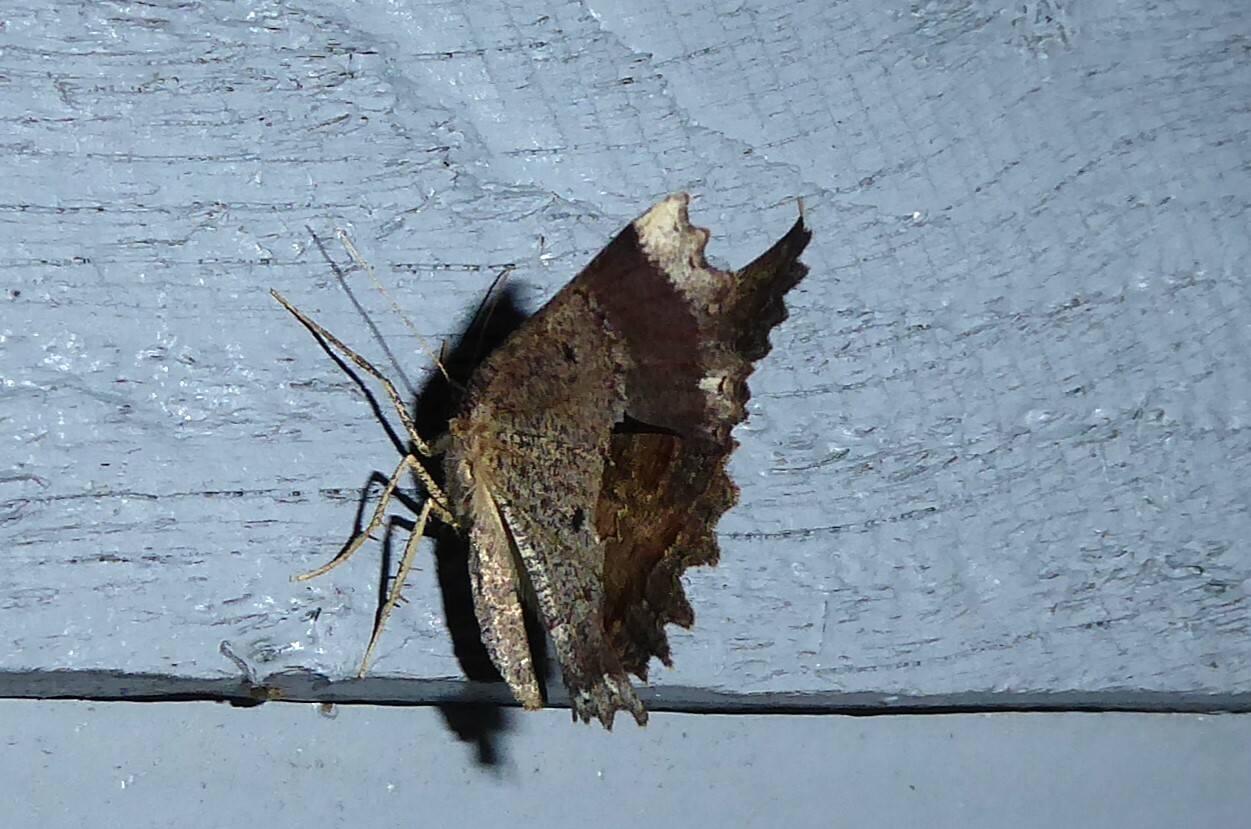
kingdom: Animalia
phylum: Arthropoda
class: Insecta
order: Lepidoptera
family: Geometridae
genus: Gellonia
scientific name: Gellonia pannularia
